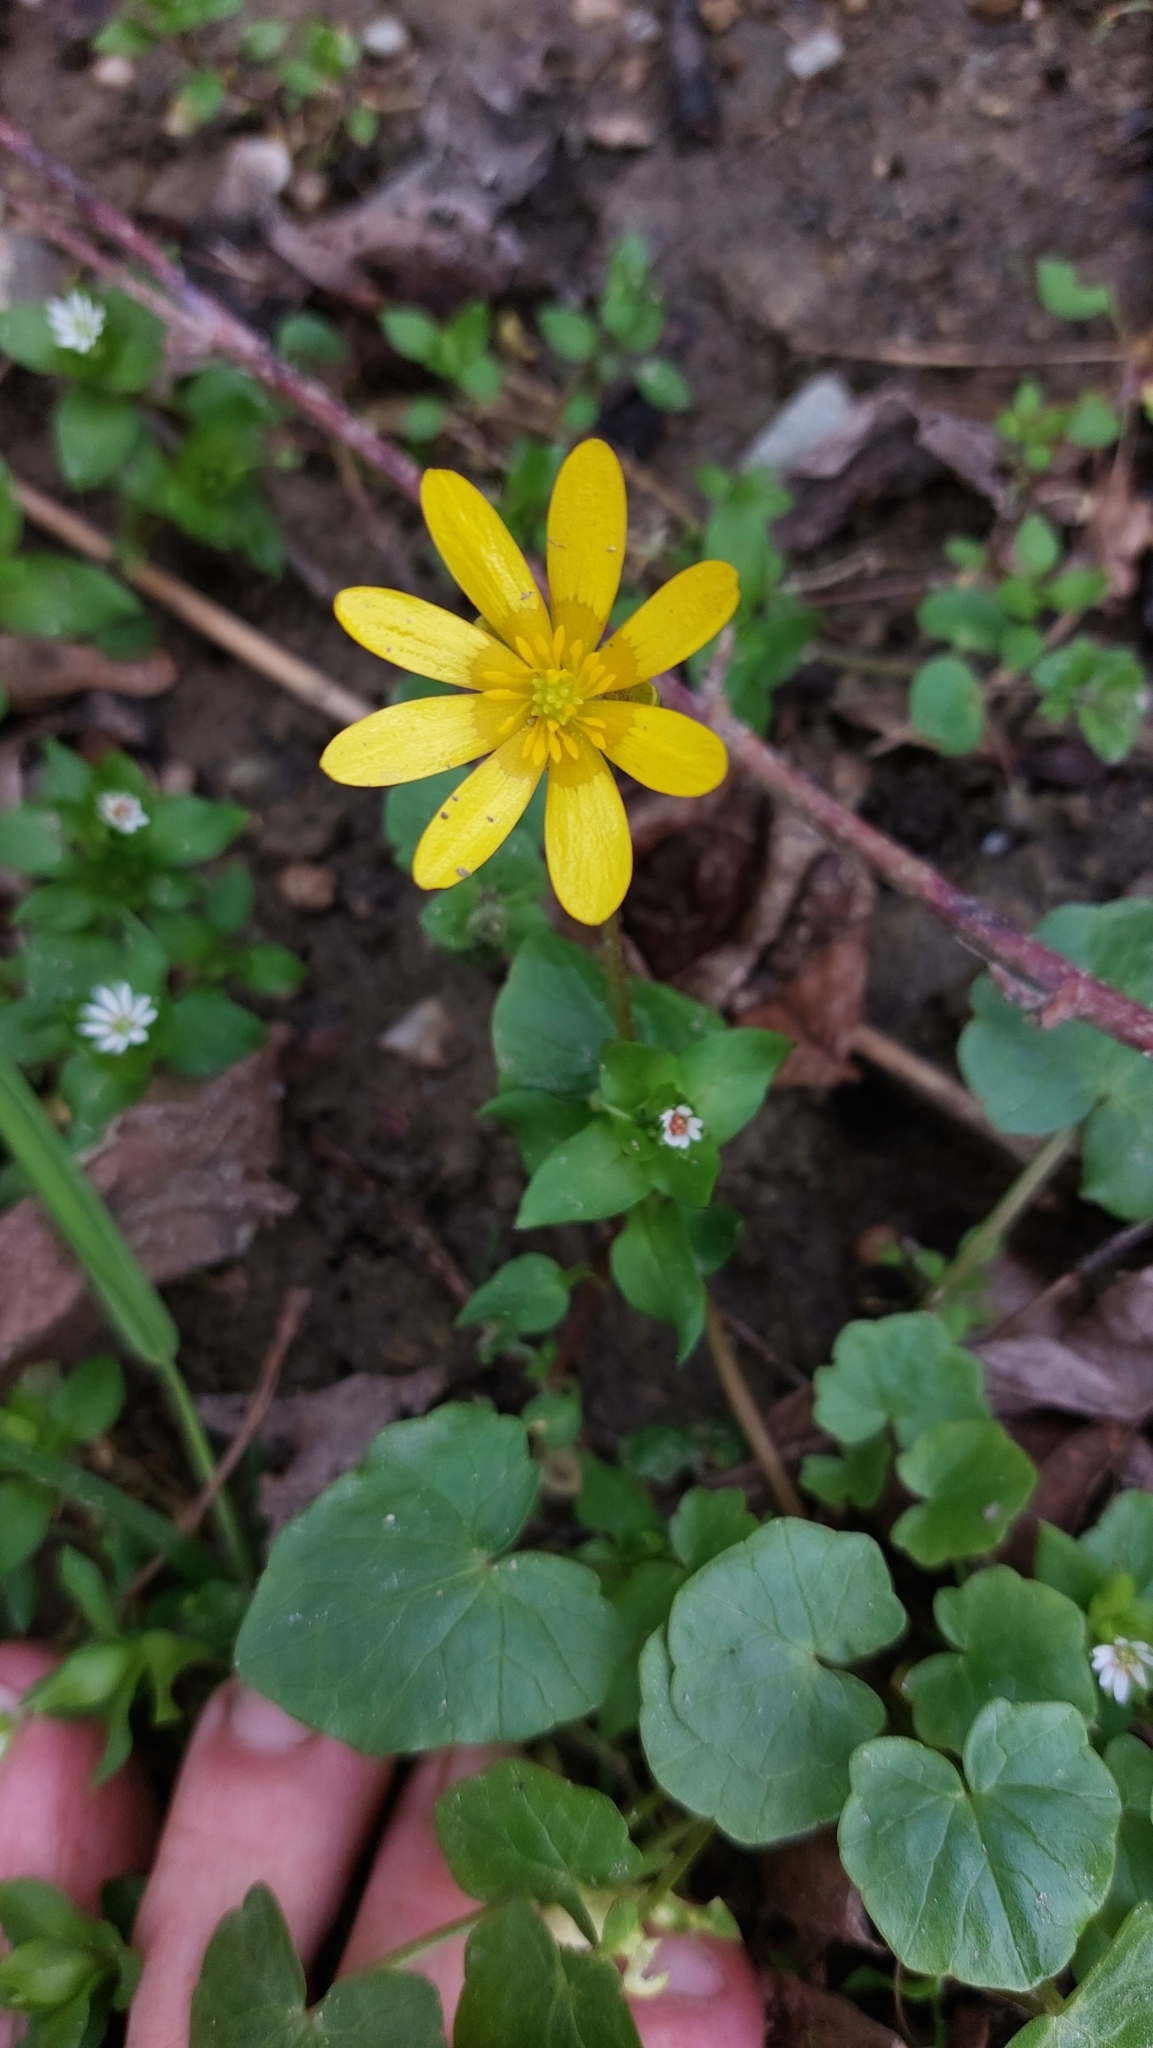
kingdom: Plantae
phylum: Tracheophyta
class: Magnoliopsida
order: Ranunculales
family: Ranunculaceae
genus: Ficaria
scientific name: Ficaria verna
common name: Lesser celandine
